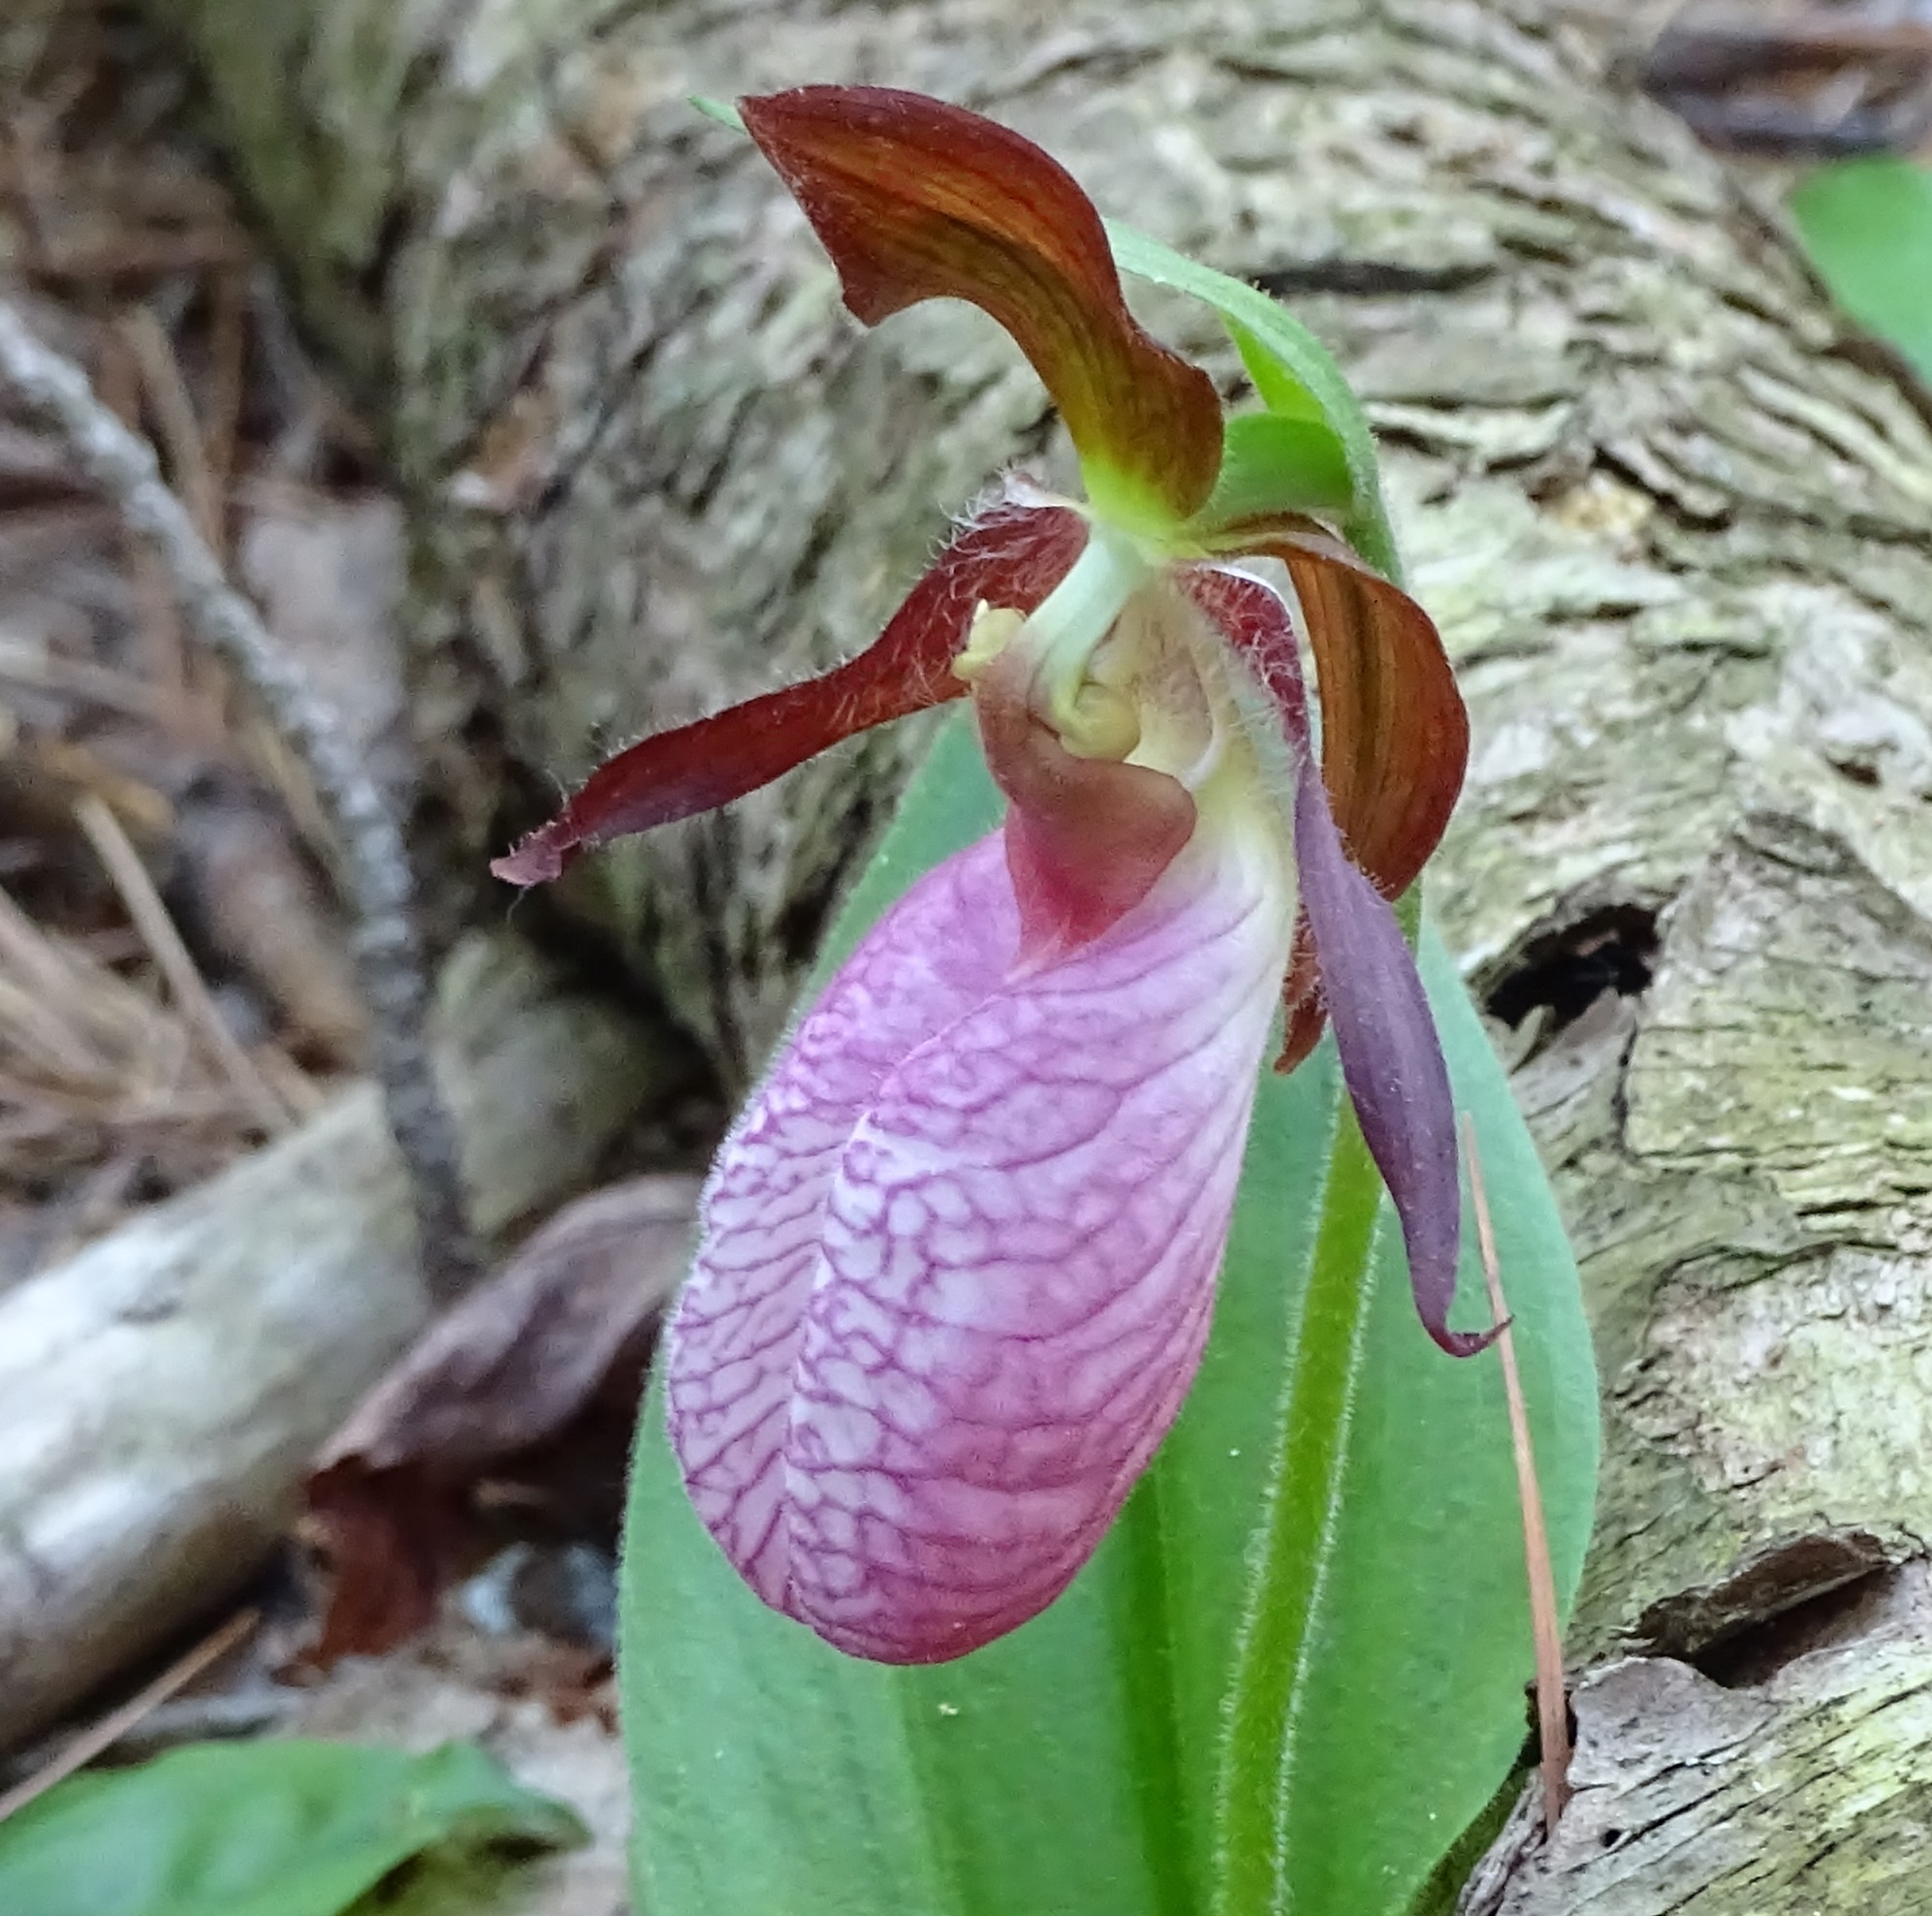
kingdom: Plantae
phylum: Tracheophyta
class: Liliopsida
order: Asparagales
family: Orchidaceae
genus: Cypripedium
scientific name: Cypripedium acaule
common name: Pink lady's-slipper
